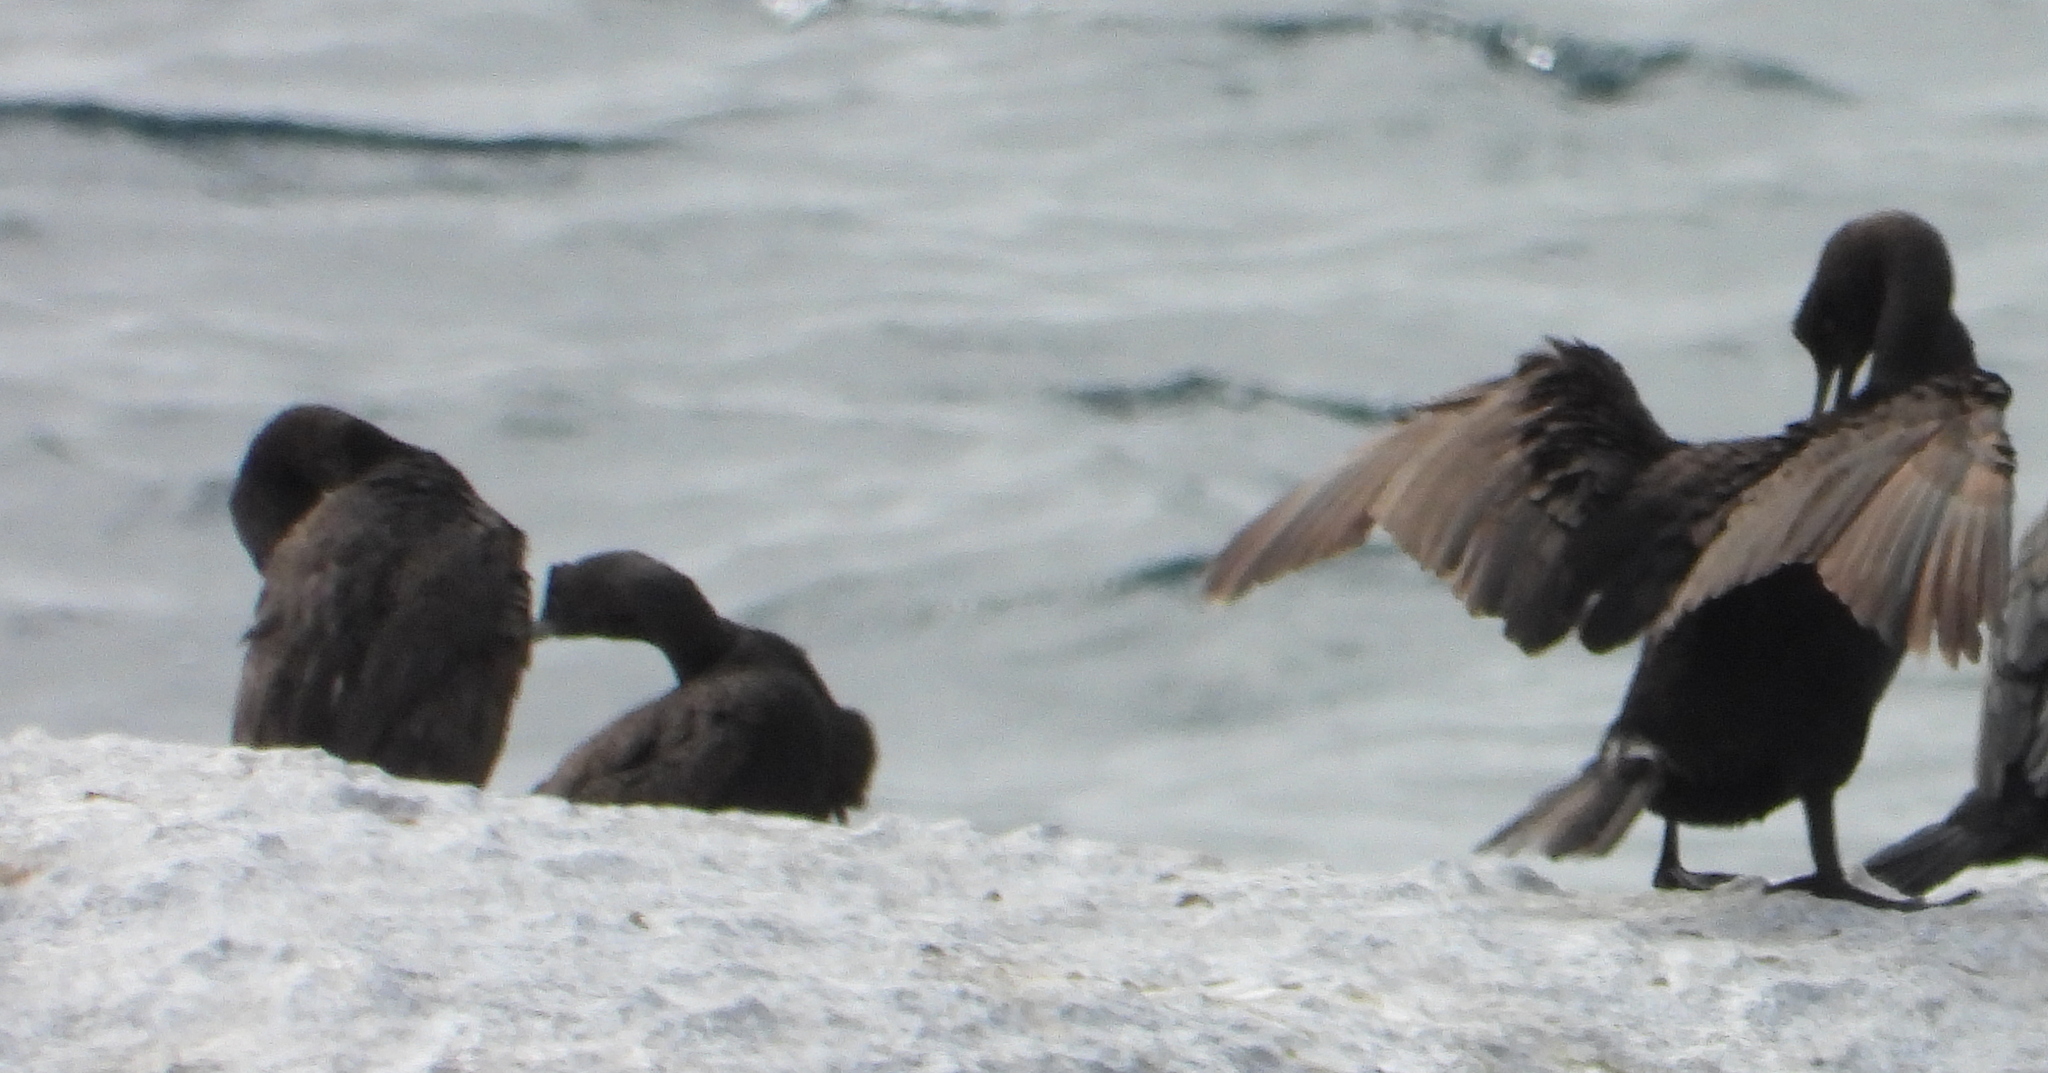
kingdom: Animalia
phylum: Chordata
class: Aves
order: Suliformes
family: Phalacrocoracidae
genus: Phalacrocorax
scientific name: Phalacrocorax neglectus
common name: Bank cormorant
